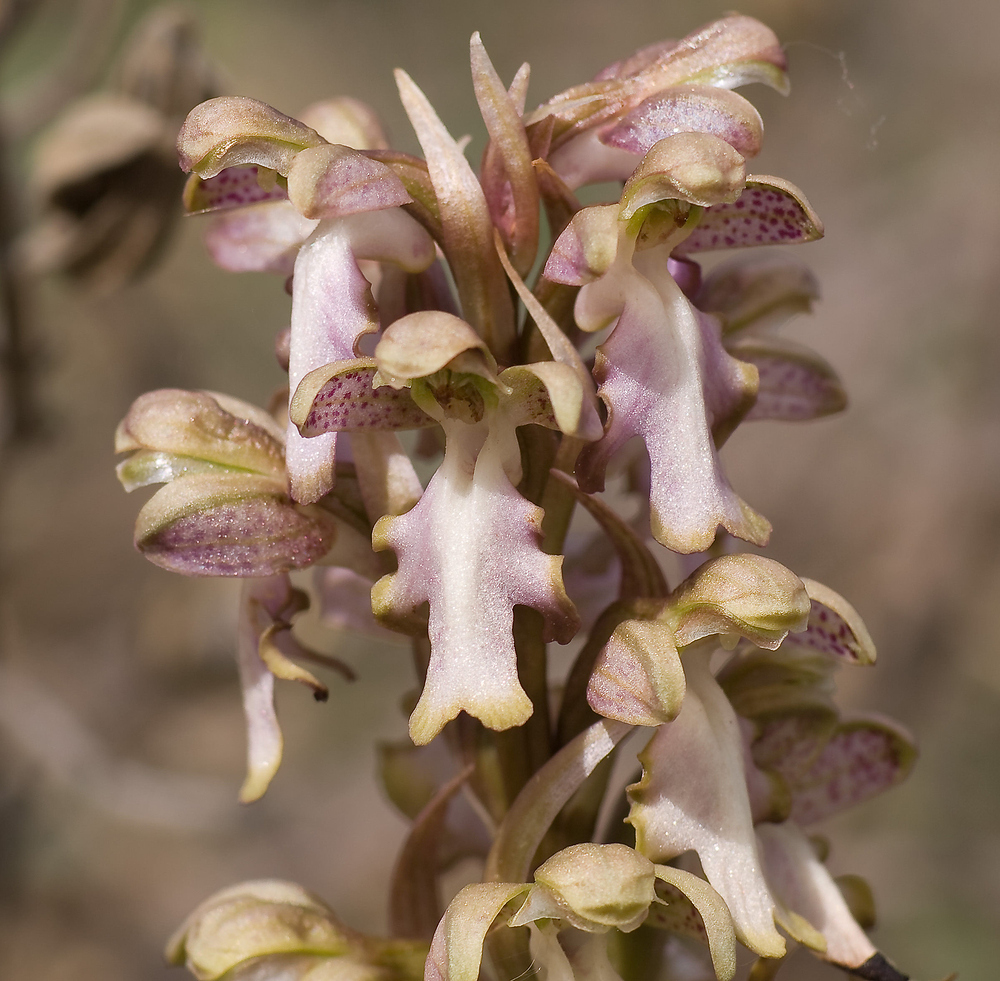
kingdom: Plantae
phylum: Tracheophyta
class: Liliopsida
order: Asparagales
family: Orchidaceae
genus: Himantoglossum
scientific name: Himantoglossum robertianum
